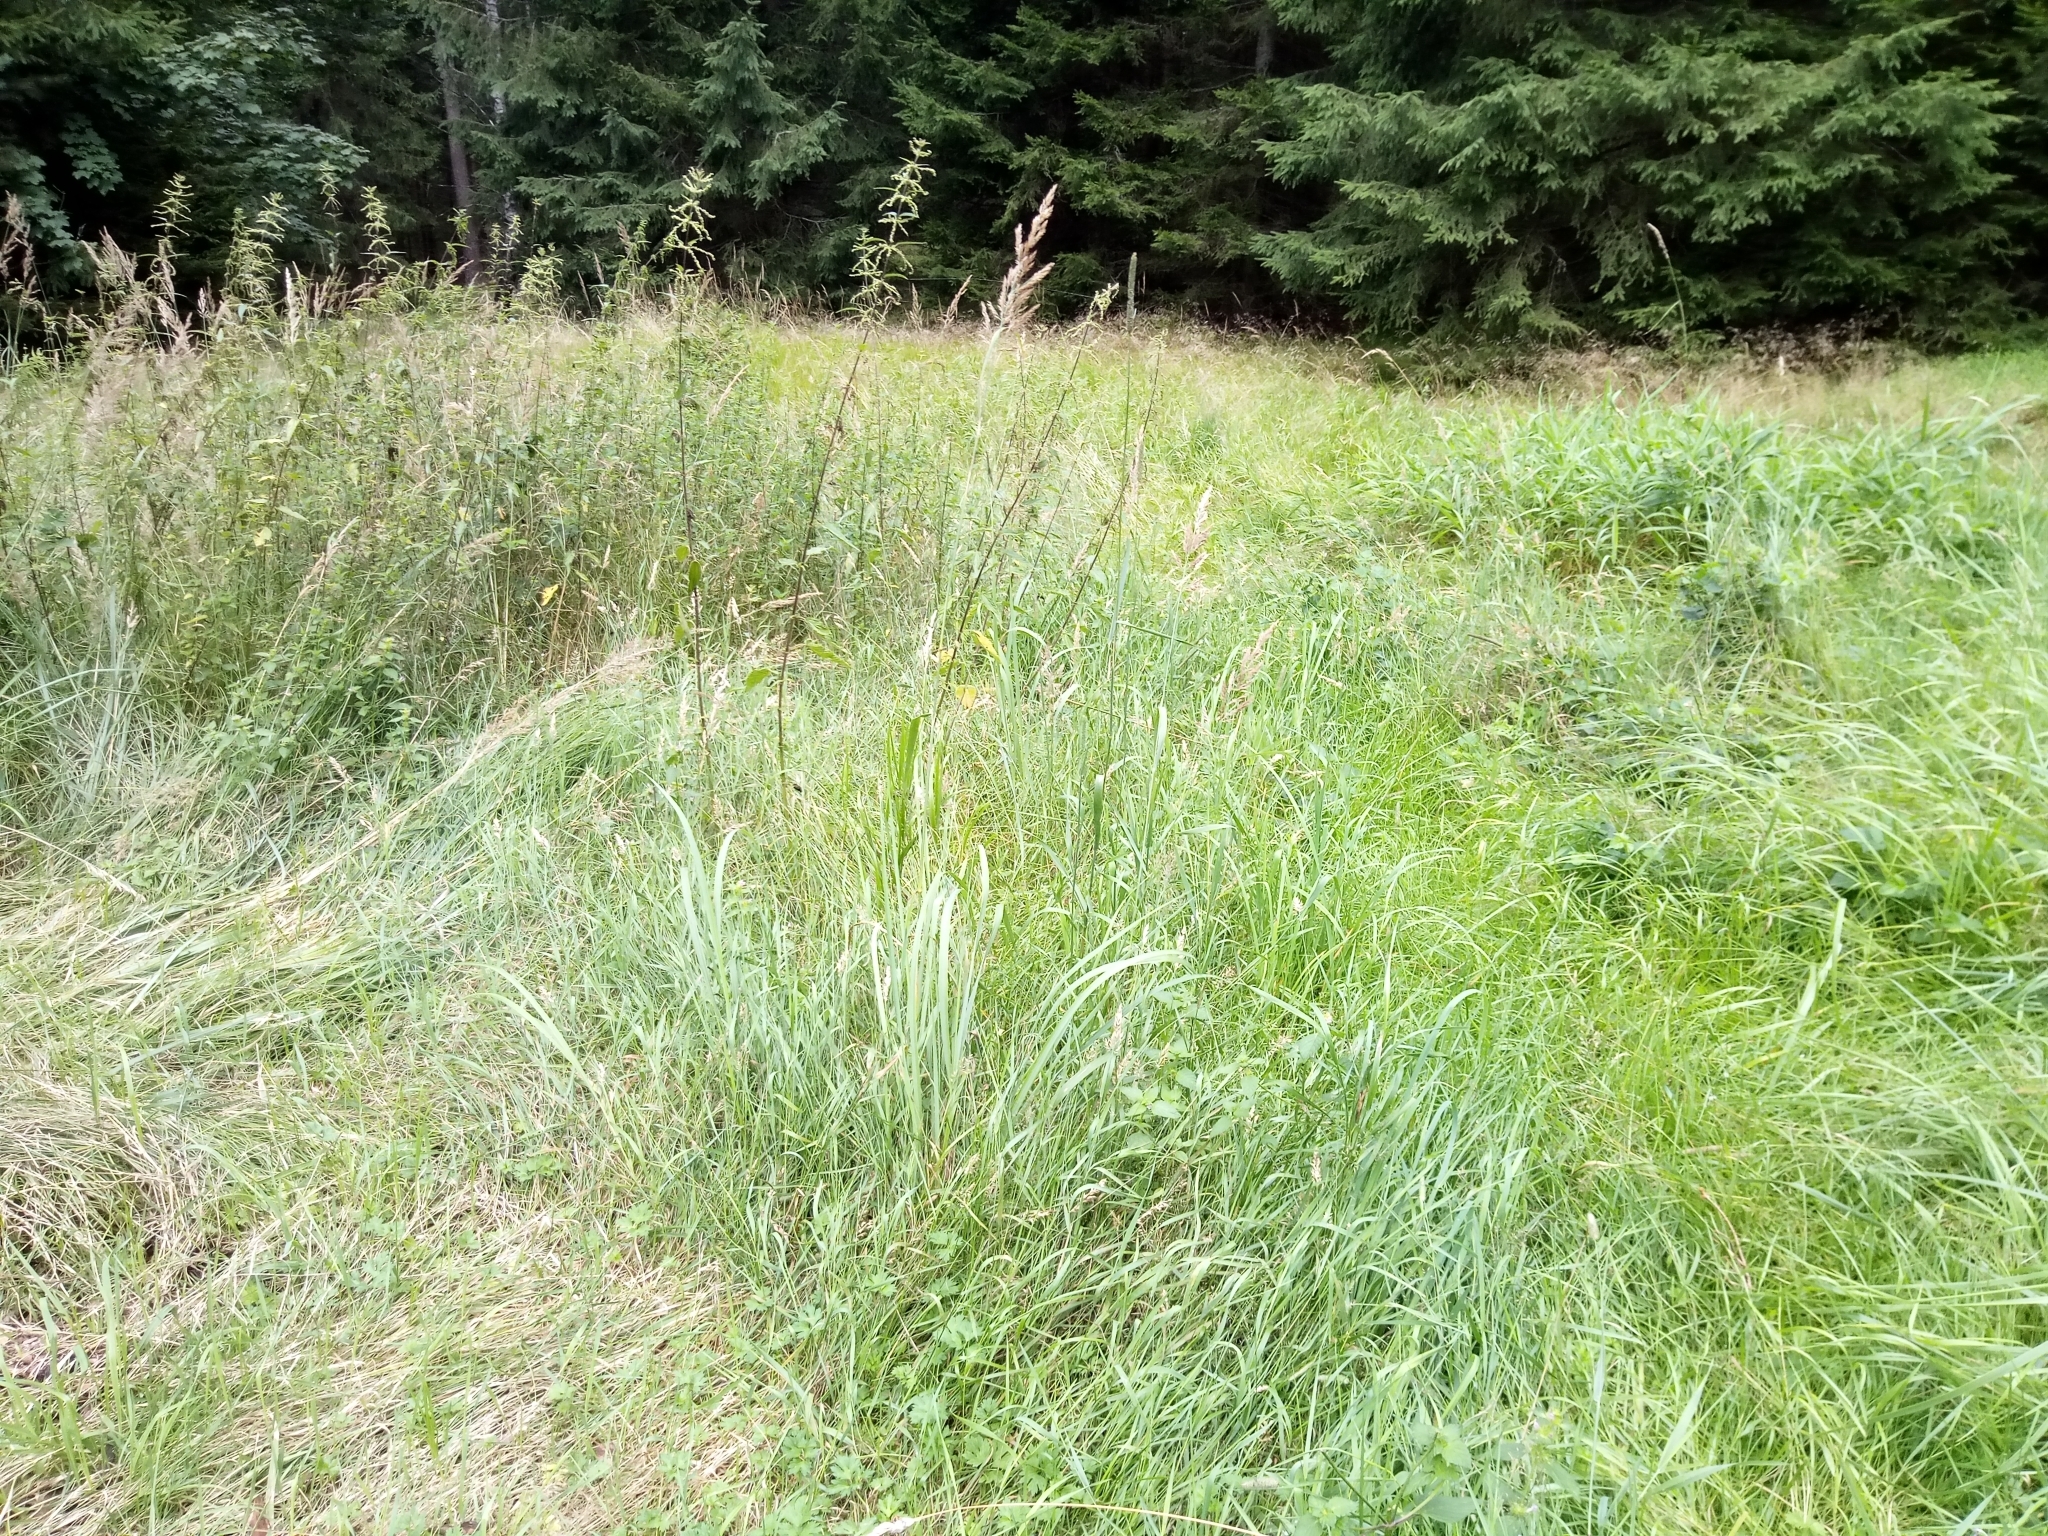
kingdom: Plantae
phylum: Tracheophyta
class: Liliopsida
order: Poales
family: Poaceae
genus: Calamagrostis
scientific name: Calamagrostis epigejos
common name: Wood small-reed
